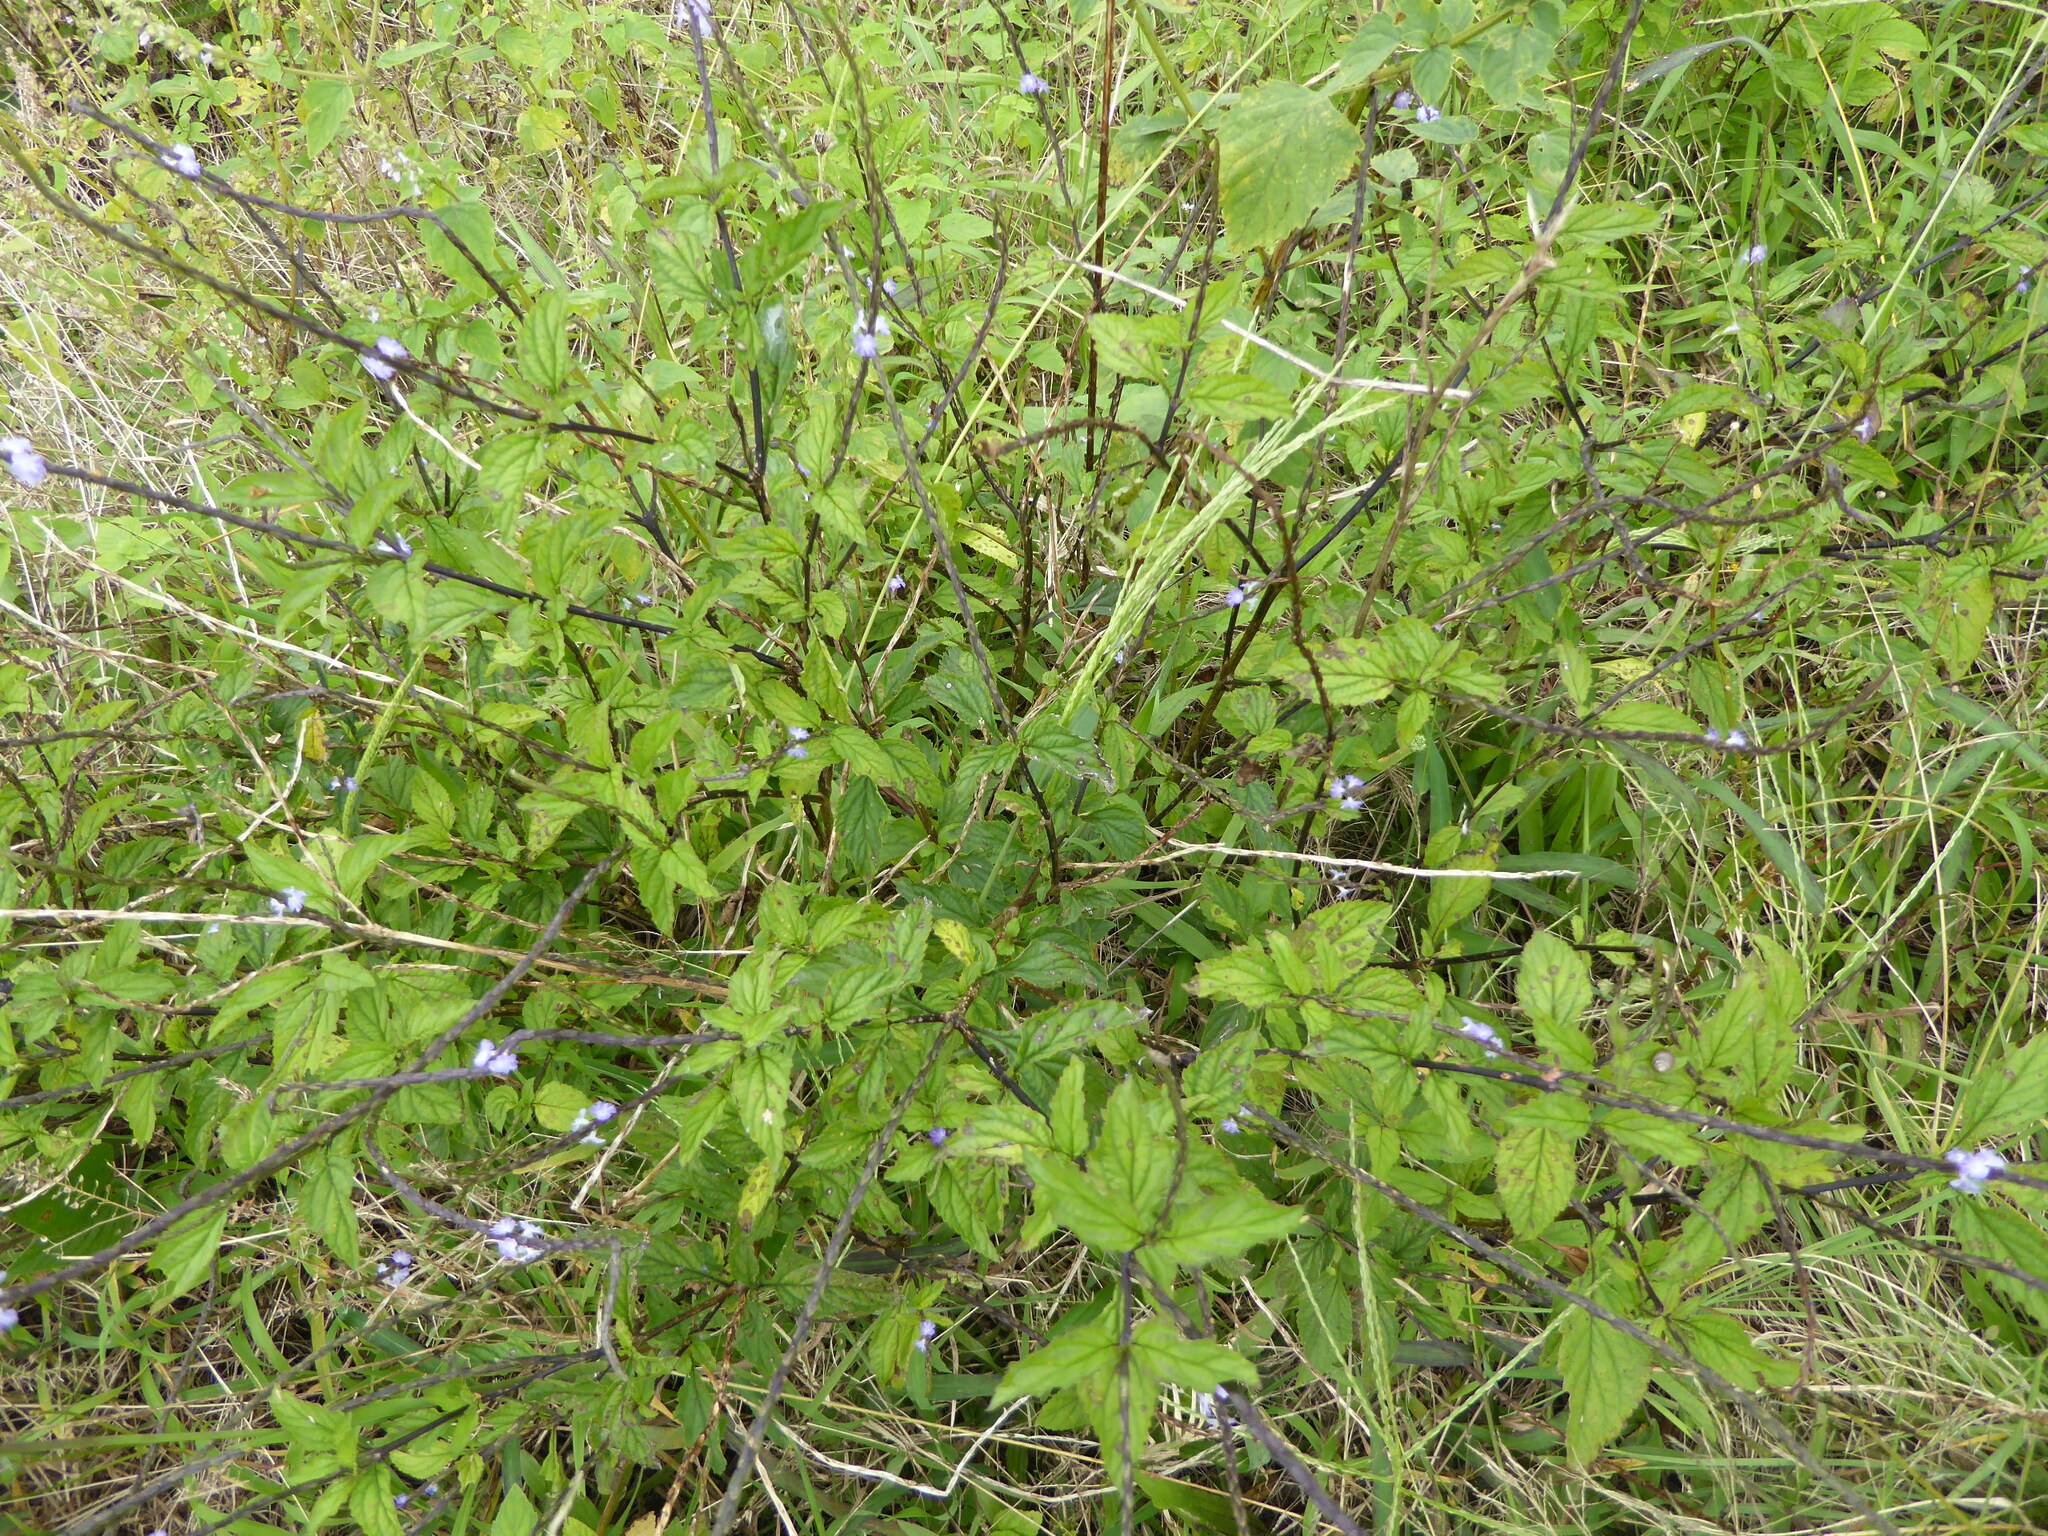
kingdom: Plantae
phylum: Tracheophyta
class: Magnoliopsida
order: Lamiales
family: Verbenaceae
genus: Stachytarpheta
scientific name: Stachytarpheta cayennensis
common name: Cayenne porterweed
